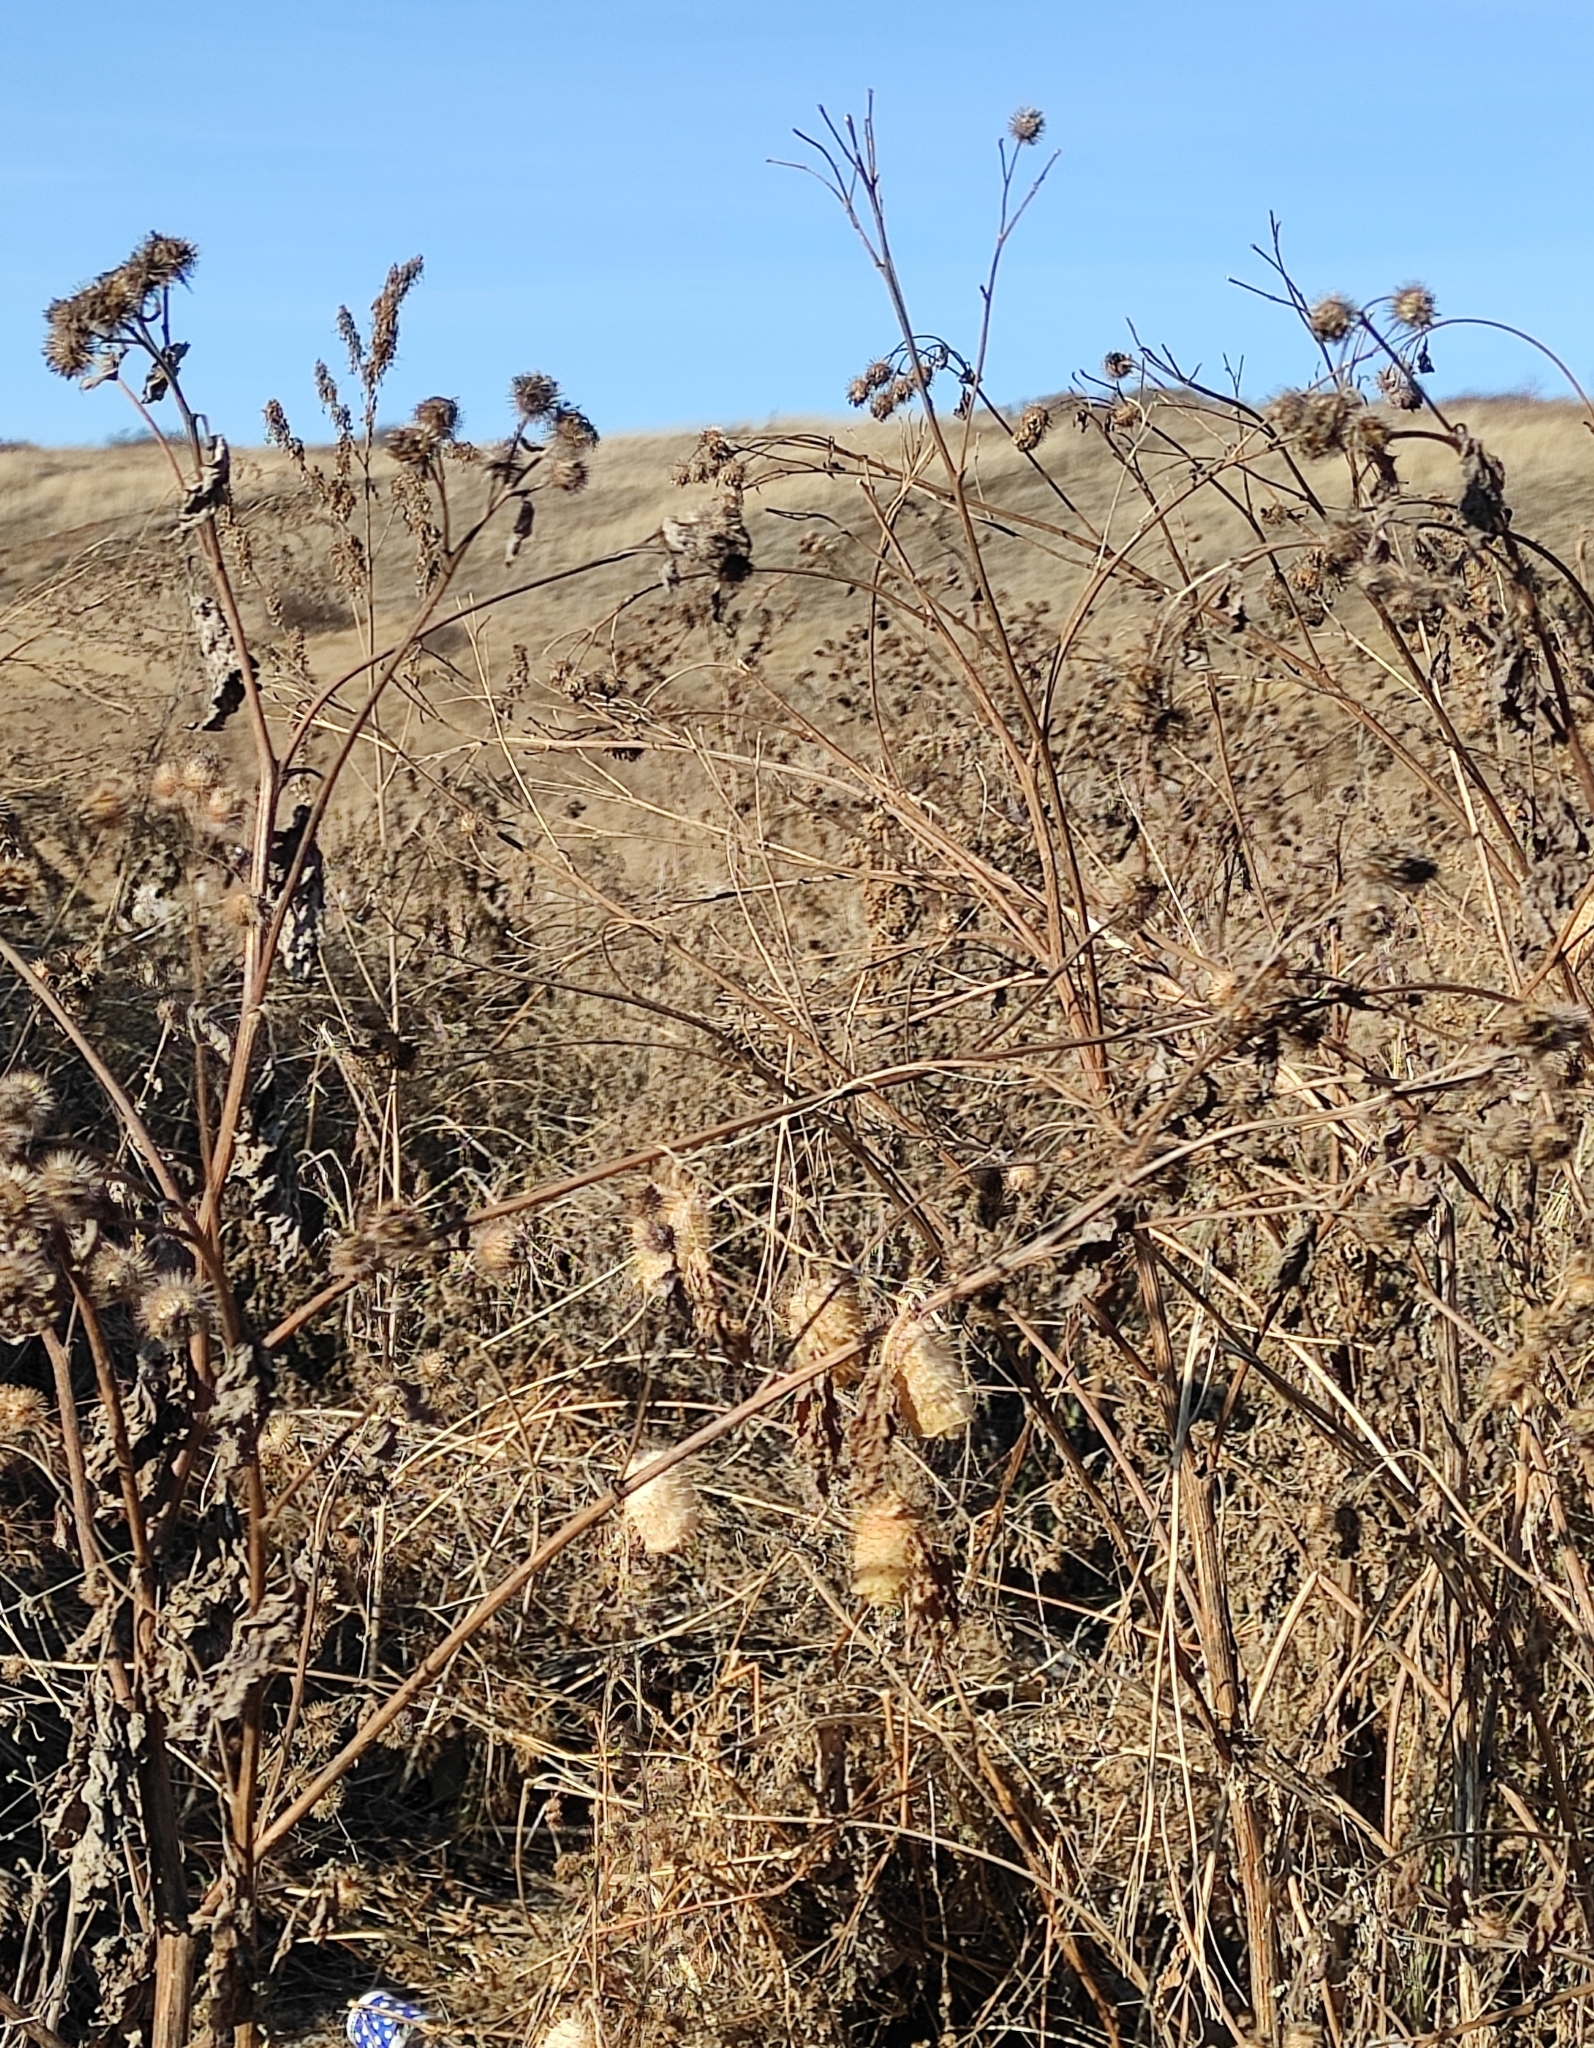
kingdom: Plantae
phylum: Tracheophyta
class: Magnoliopsida
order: Cucurbitales
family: Cucurbitaceae
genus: Echinocystis
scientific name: Echinocystis lobata
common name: Wild cucumber
